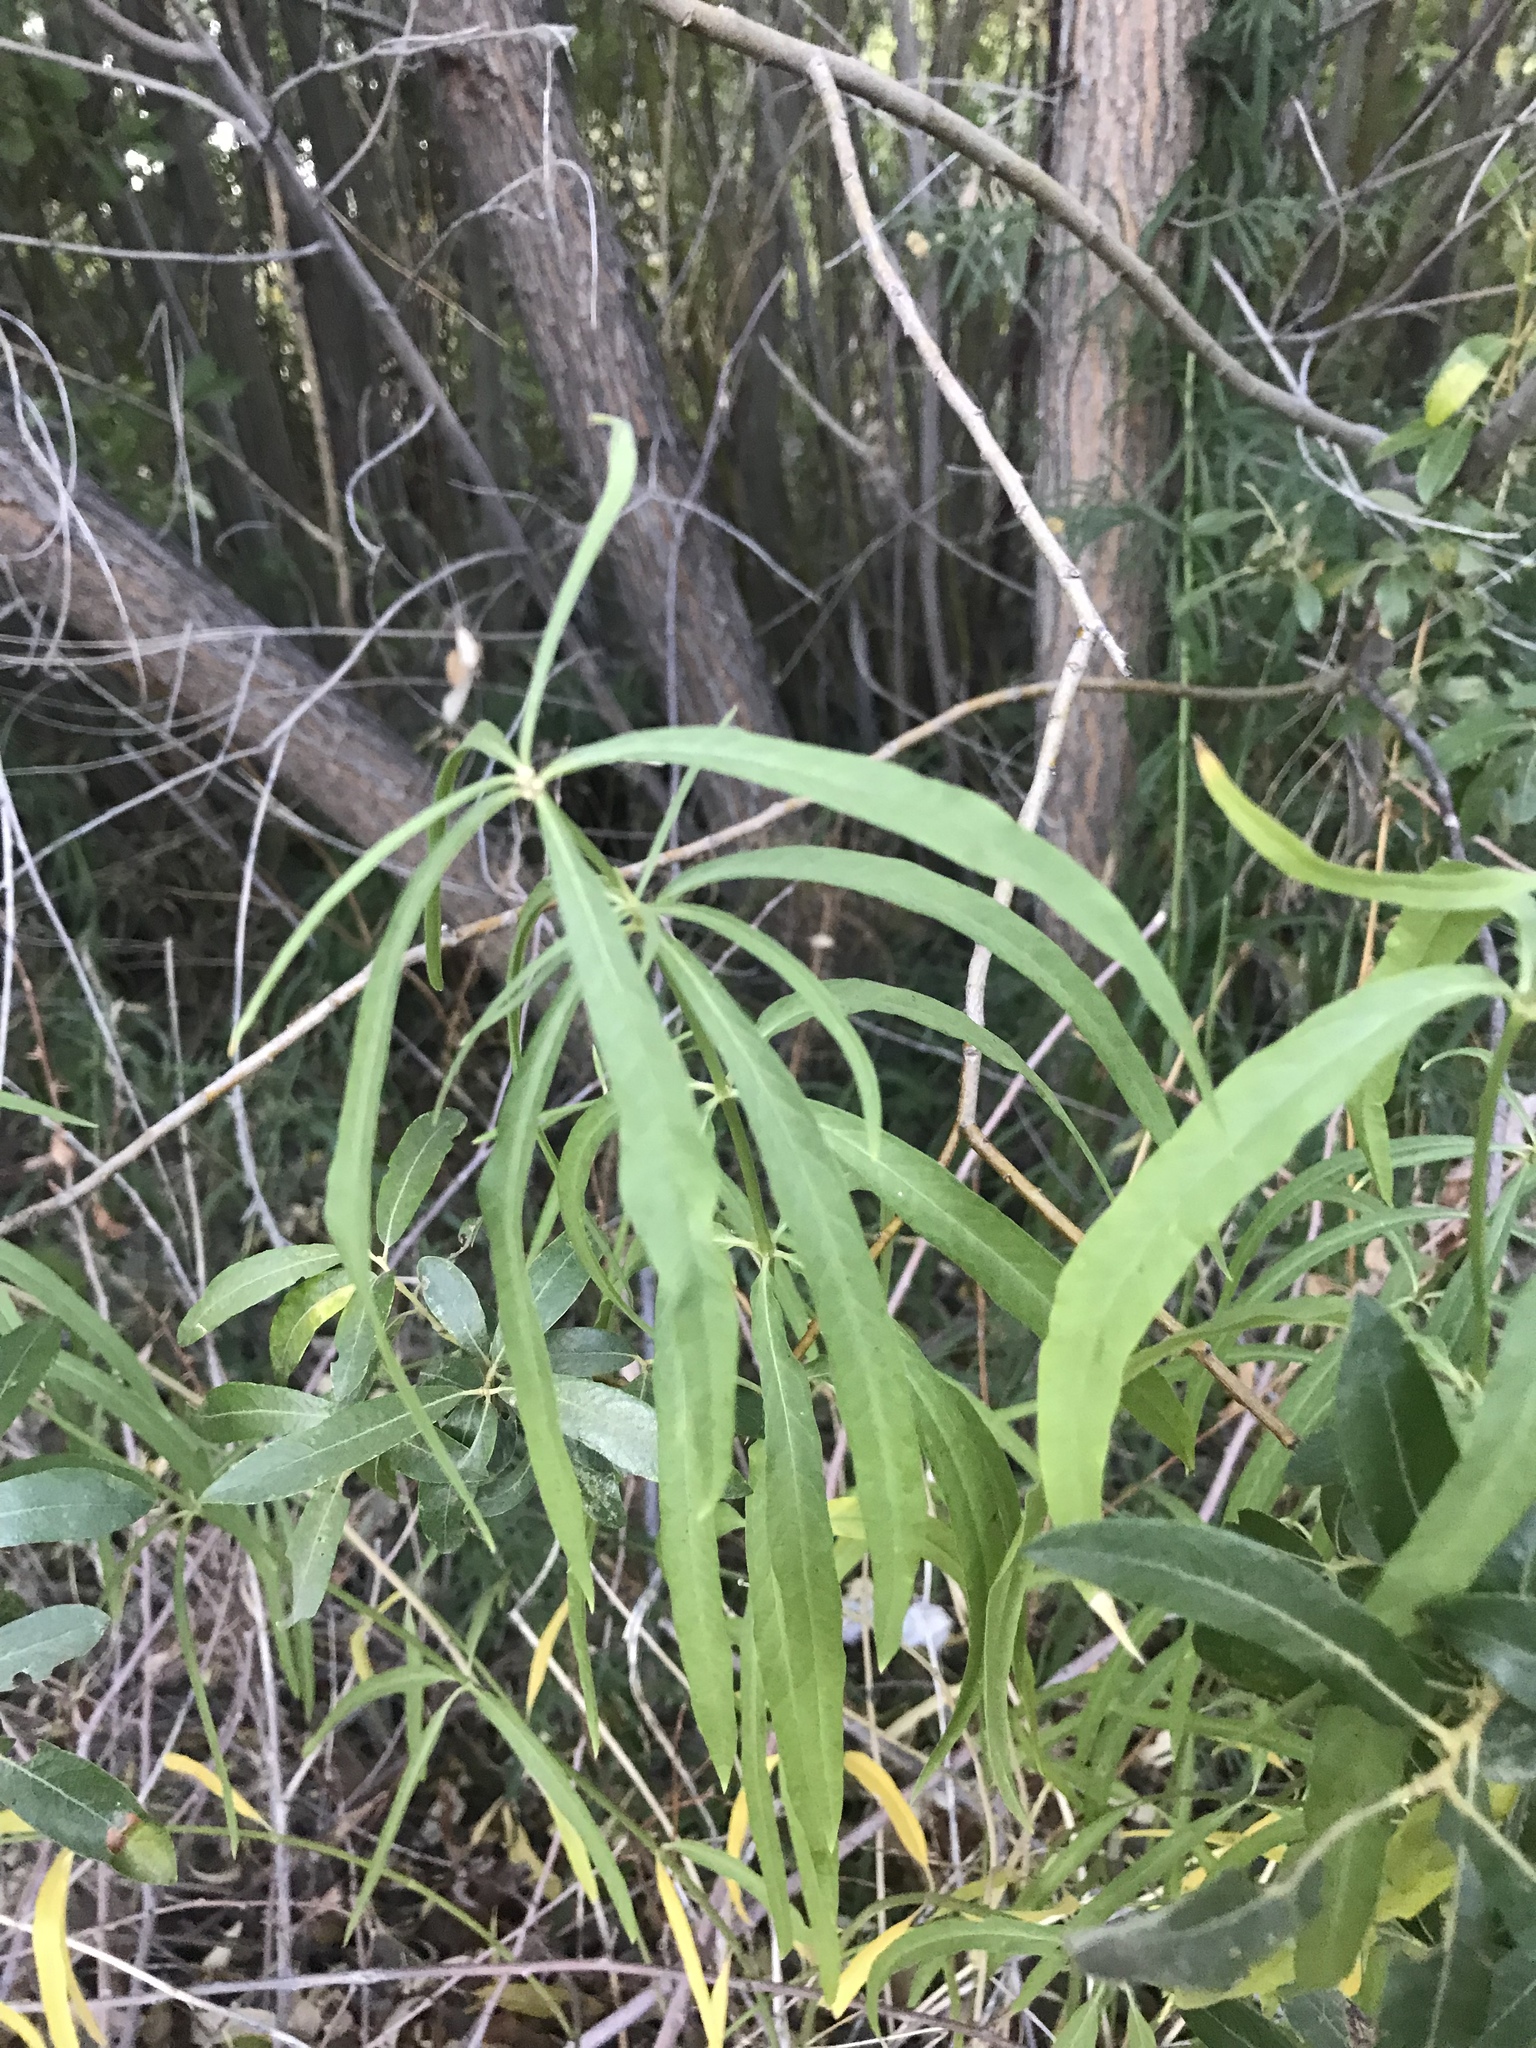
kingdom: Plantae
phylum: Tracheophyta
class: Magnoliopsida
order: Gentianales
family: Apocynaceae
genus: Asclepias
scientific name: Asclepias fascicularis
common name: Mexican milkweed
